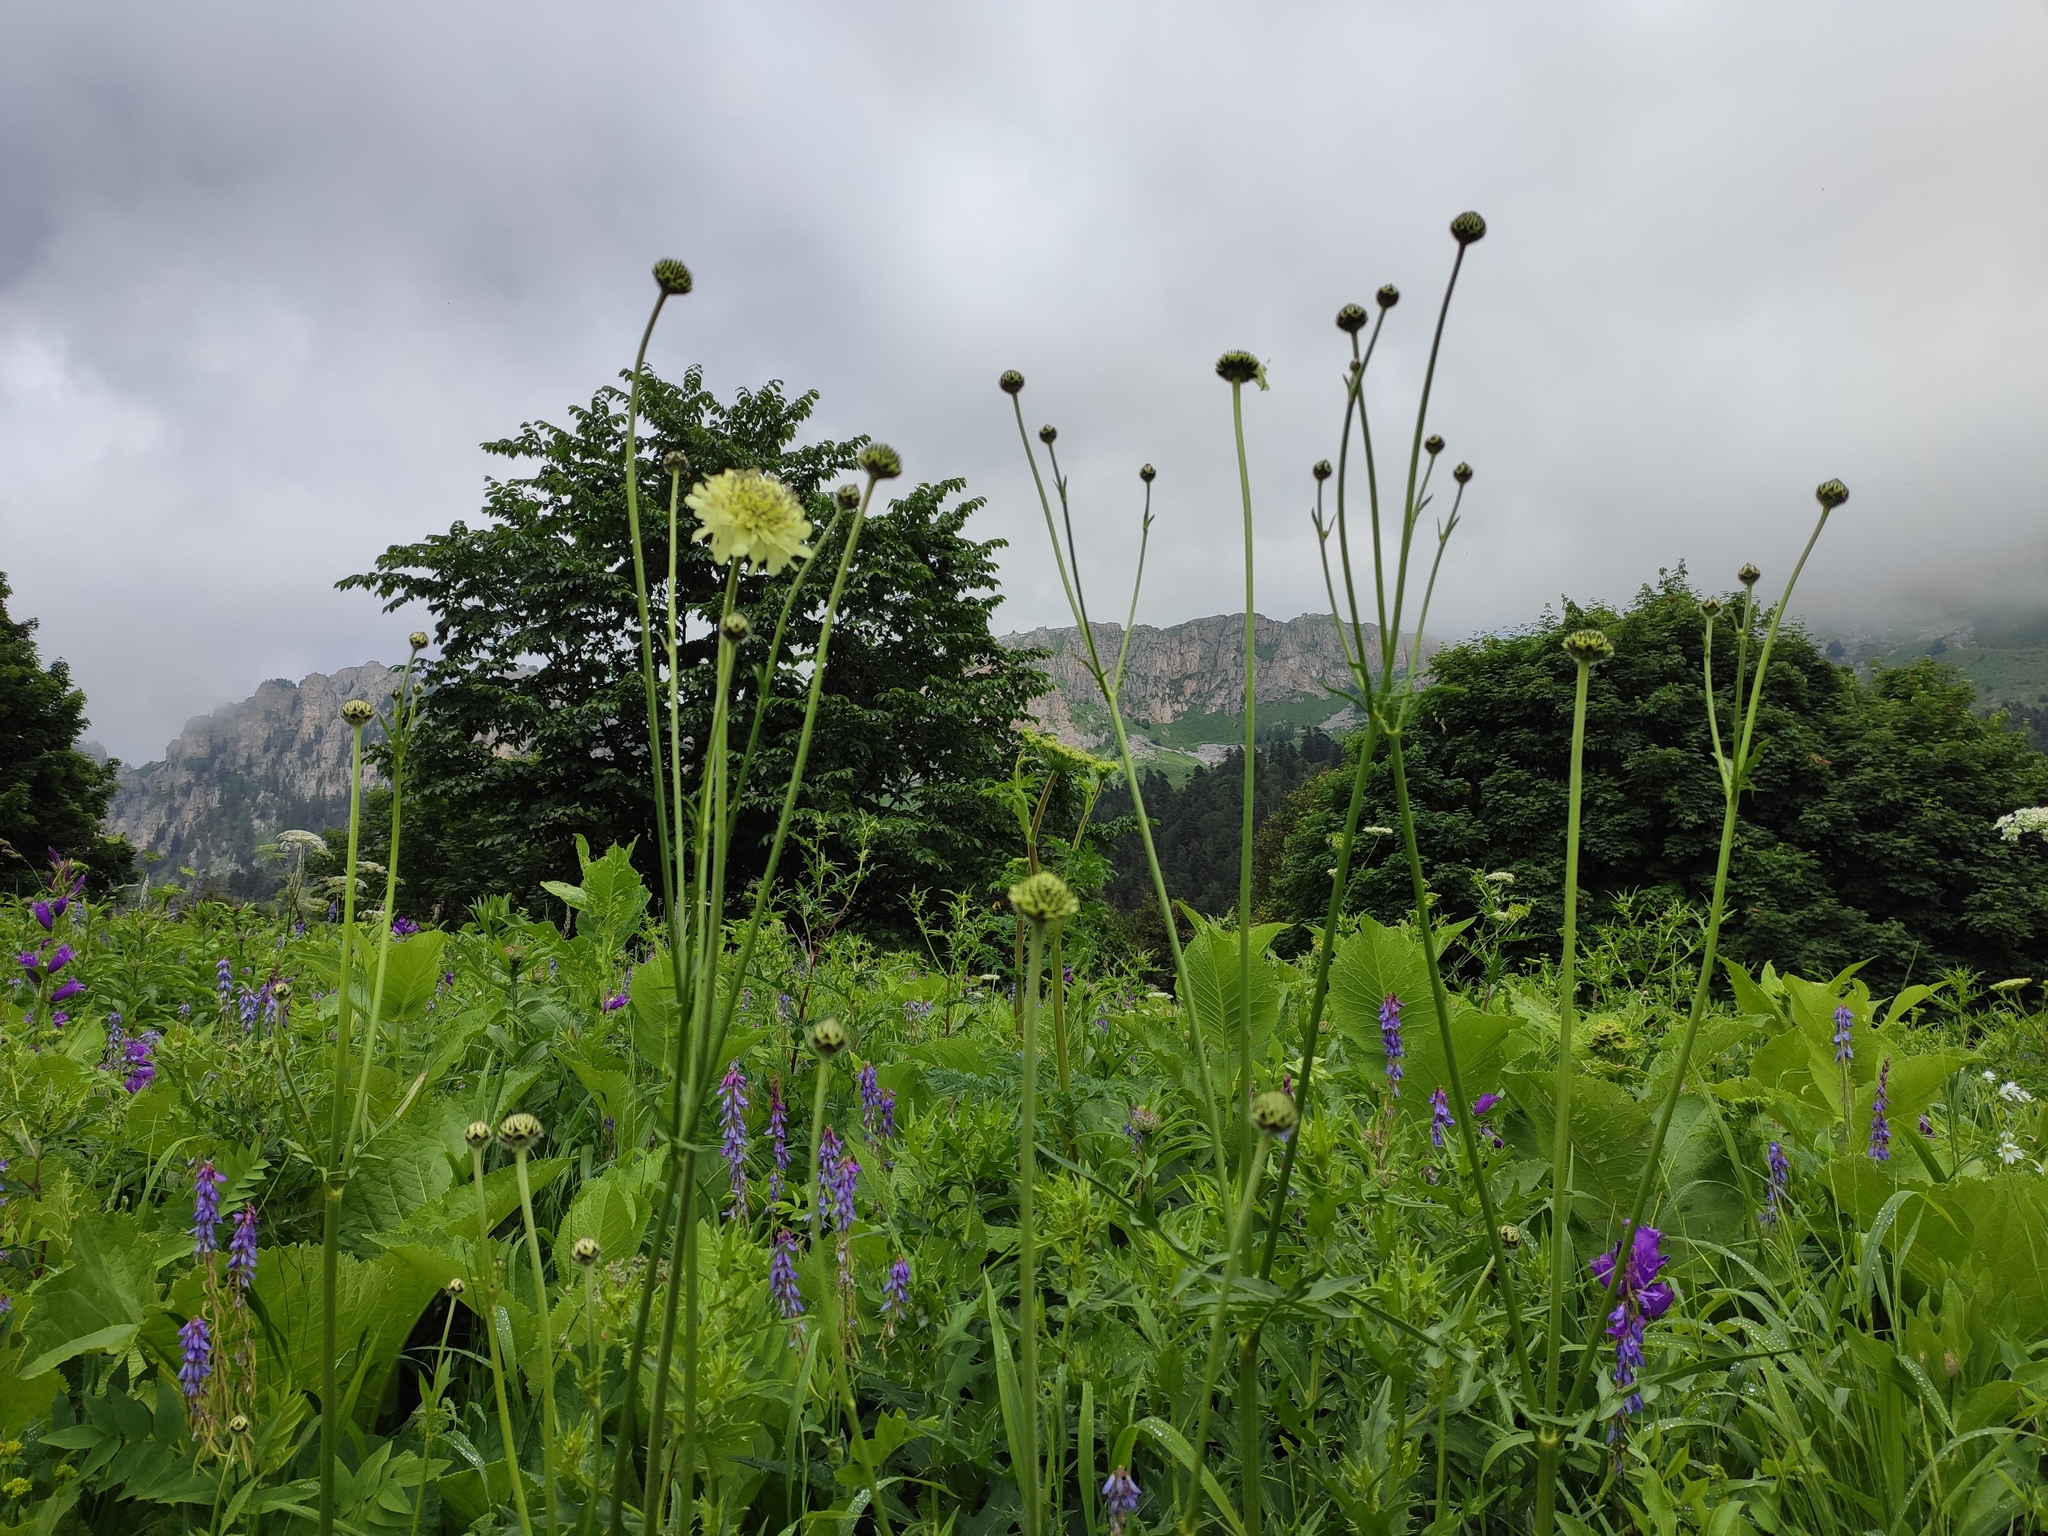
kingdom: Plantae
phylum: Tracheophyta
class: Magnoliopsida
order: Dipsacales
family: Caprifoliaceae
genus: Cephalaria
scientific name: Cephalaria gigantea
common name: Tatarian cephalaria
